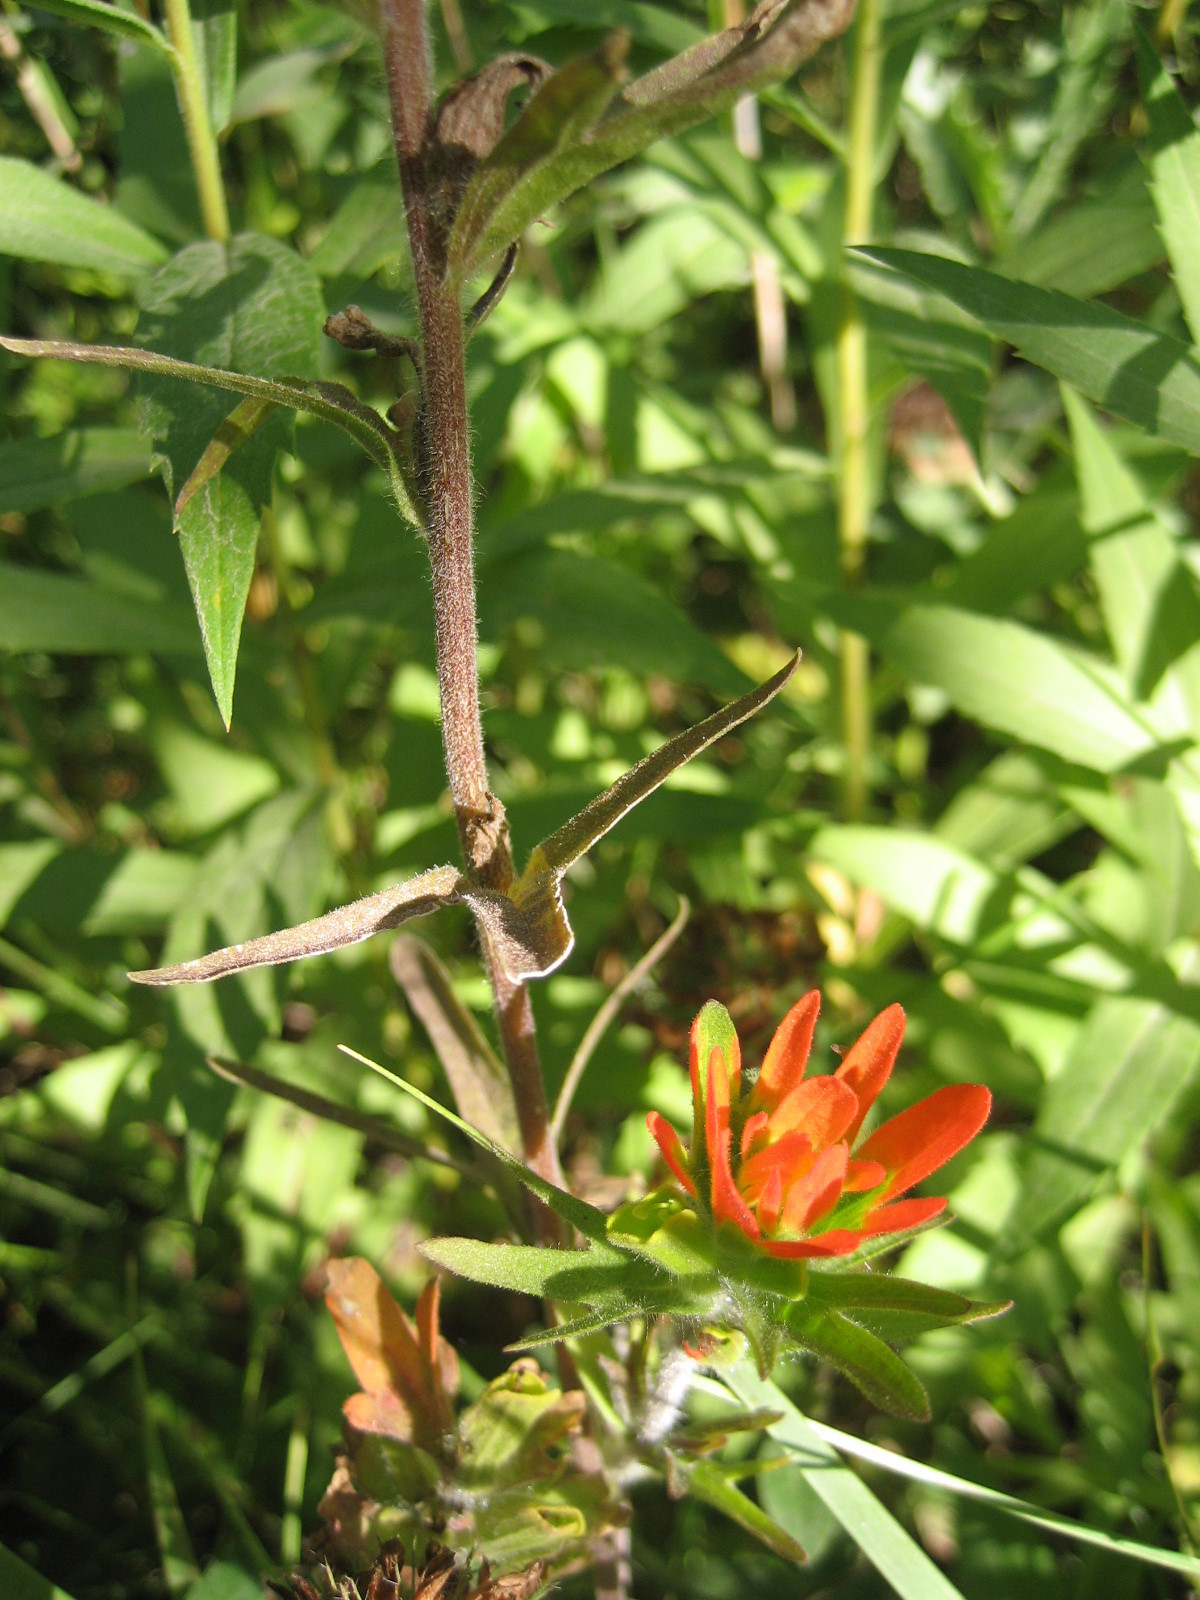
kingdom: Plantae
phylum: Tracheophyta
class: Magnoliopsida
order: Lamiales
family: Orobanchaceae
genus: Castilleja
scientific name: Castilleja coccinea
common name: Scarlet paintbrush
